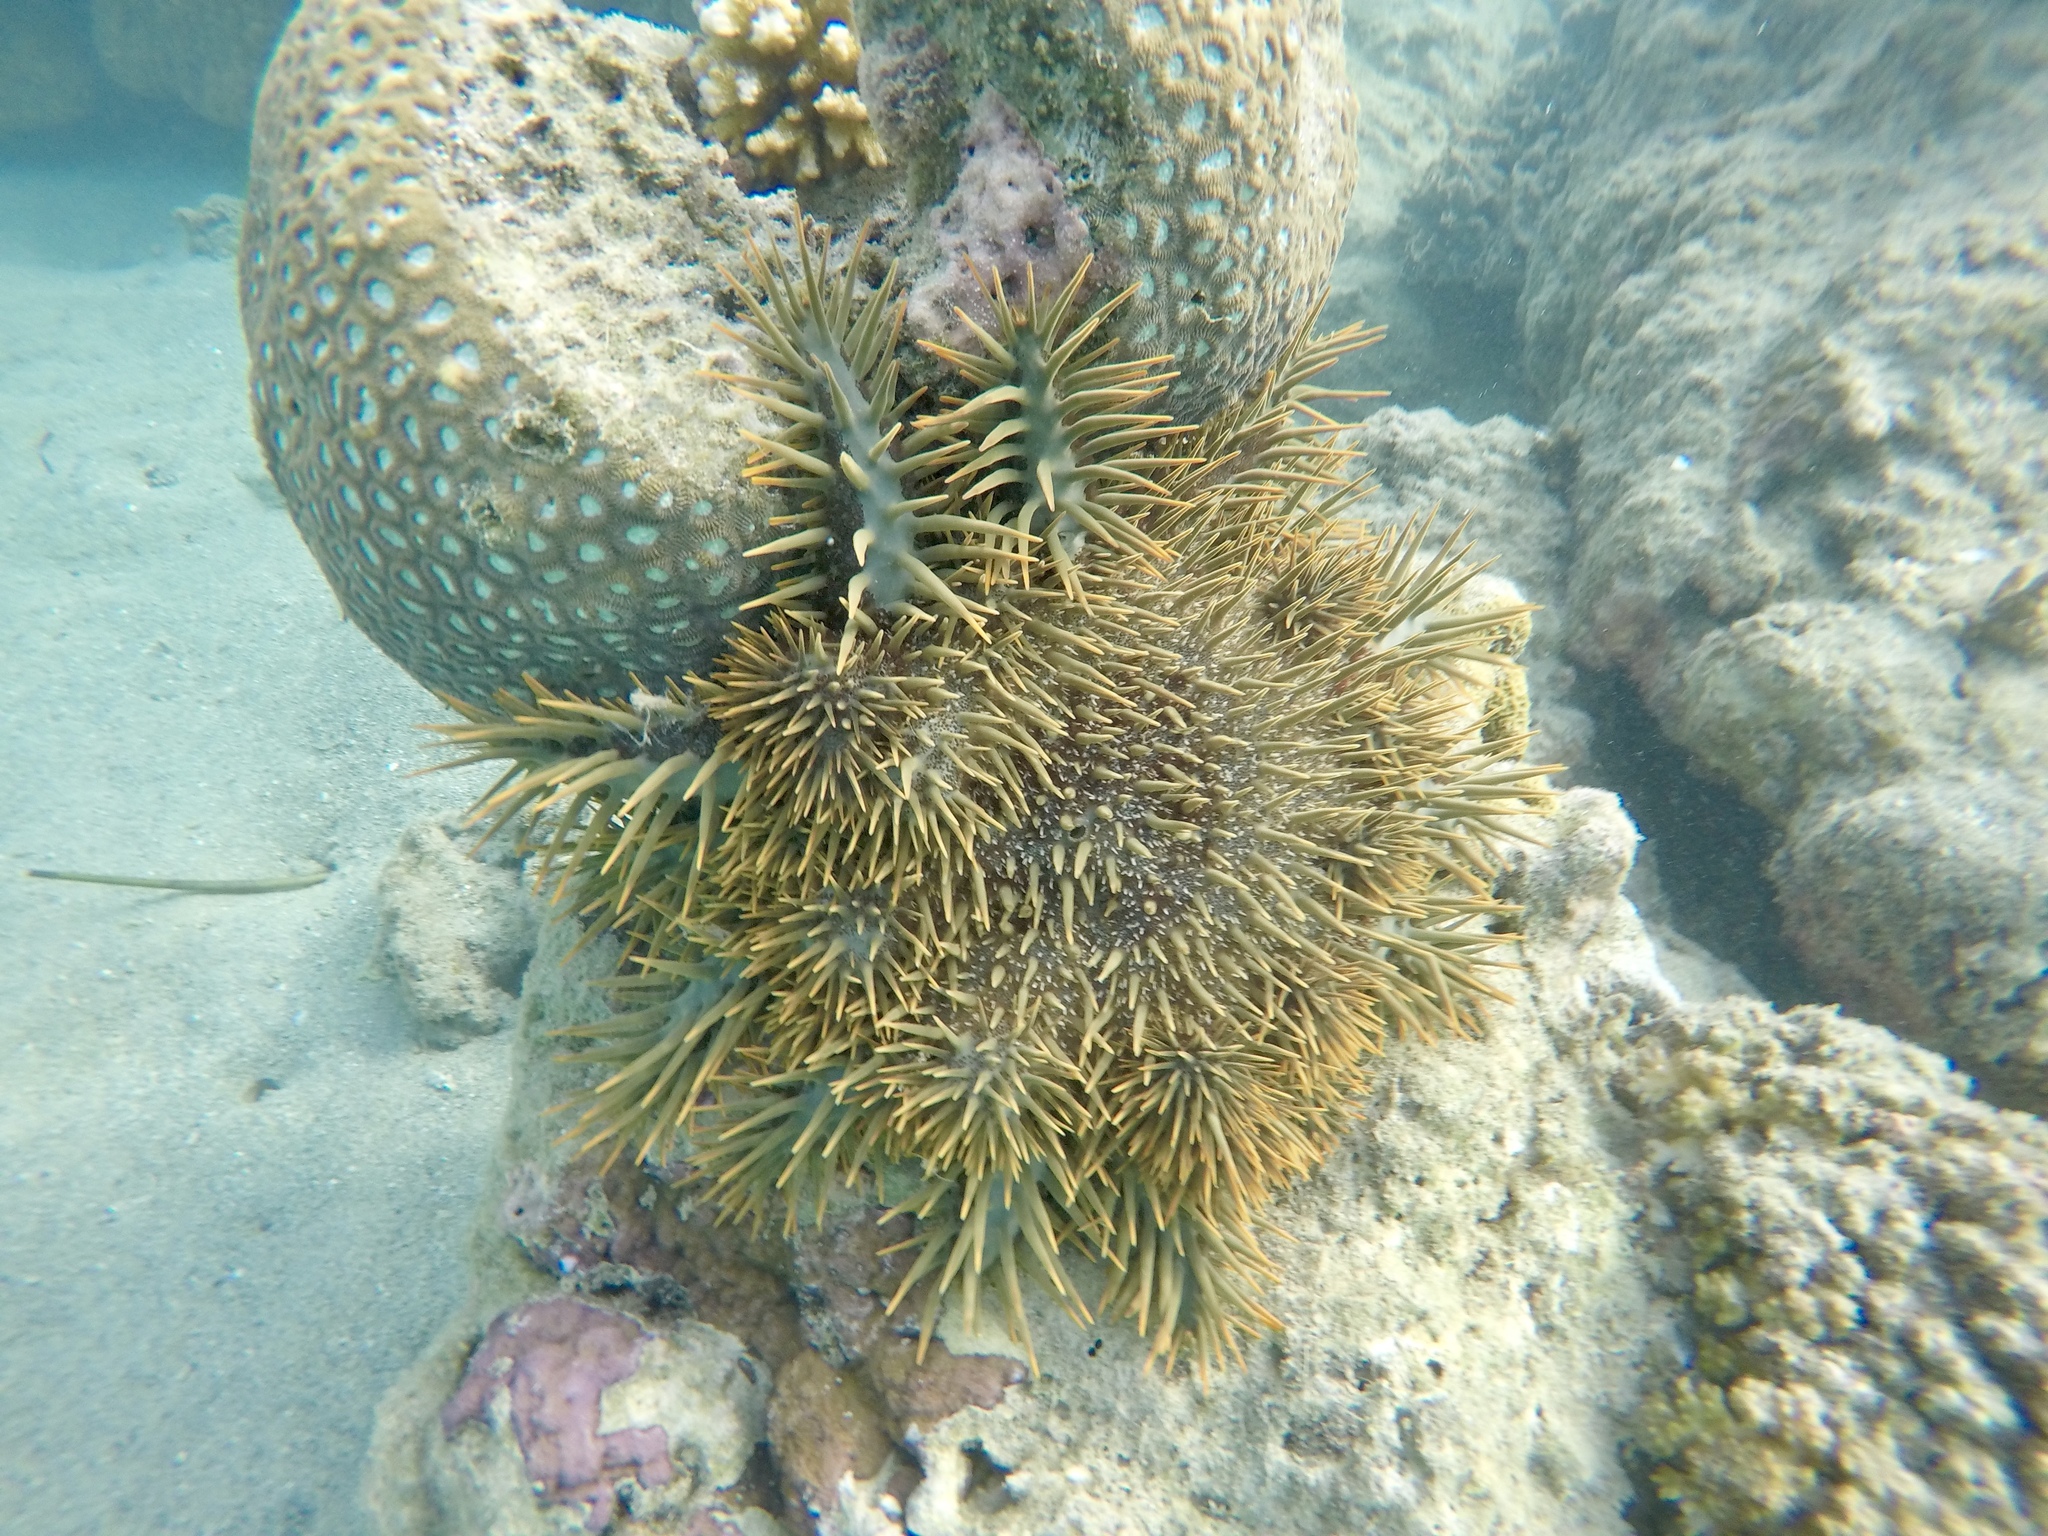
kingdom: Animalia
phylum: Echinodermata
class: Asteroidea
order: Valvatida
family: Acanthasteridae
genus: Acanthaster
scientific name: Acanthaster planci
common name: Crown-of-thorns
